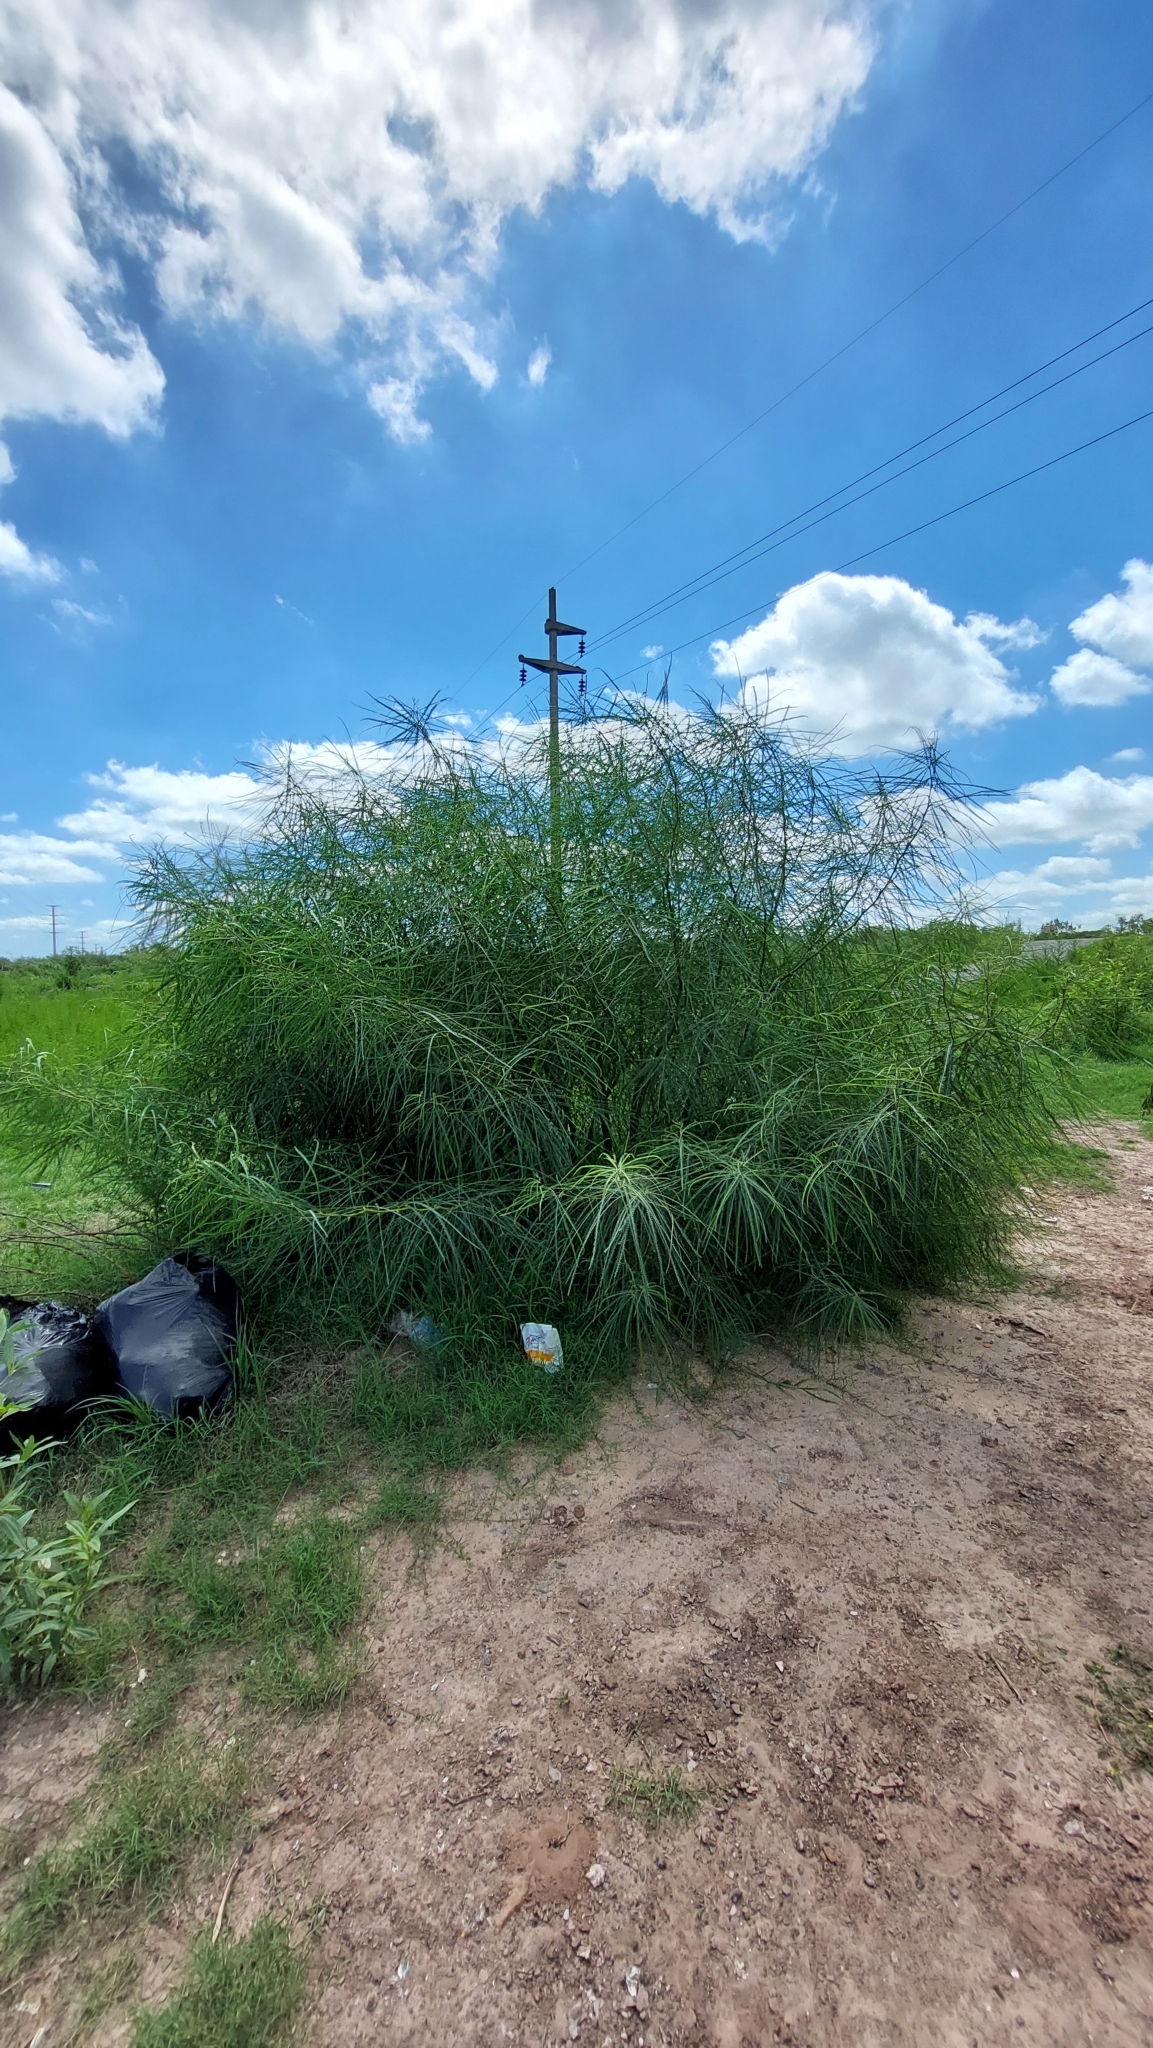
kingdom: Plantae
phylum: Tracheophyta
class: Magnoliopsida
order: Fabales
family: Fabaceae
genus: Parkinsonia
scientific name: Parkinsonia aculeata
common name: Jerusalem thorn
